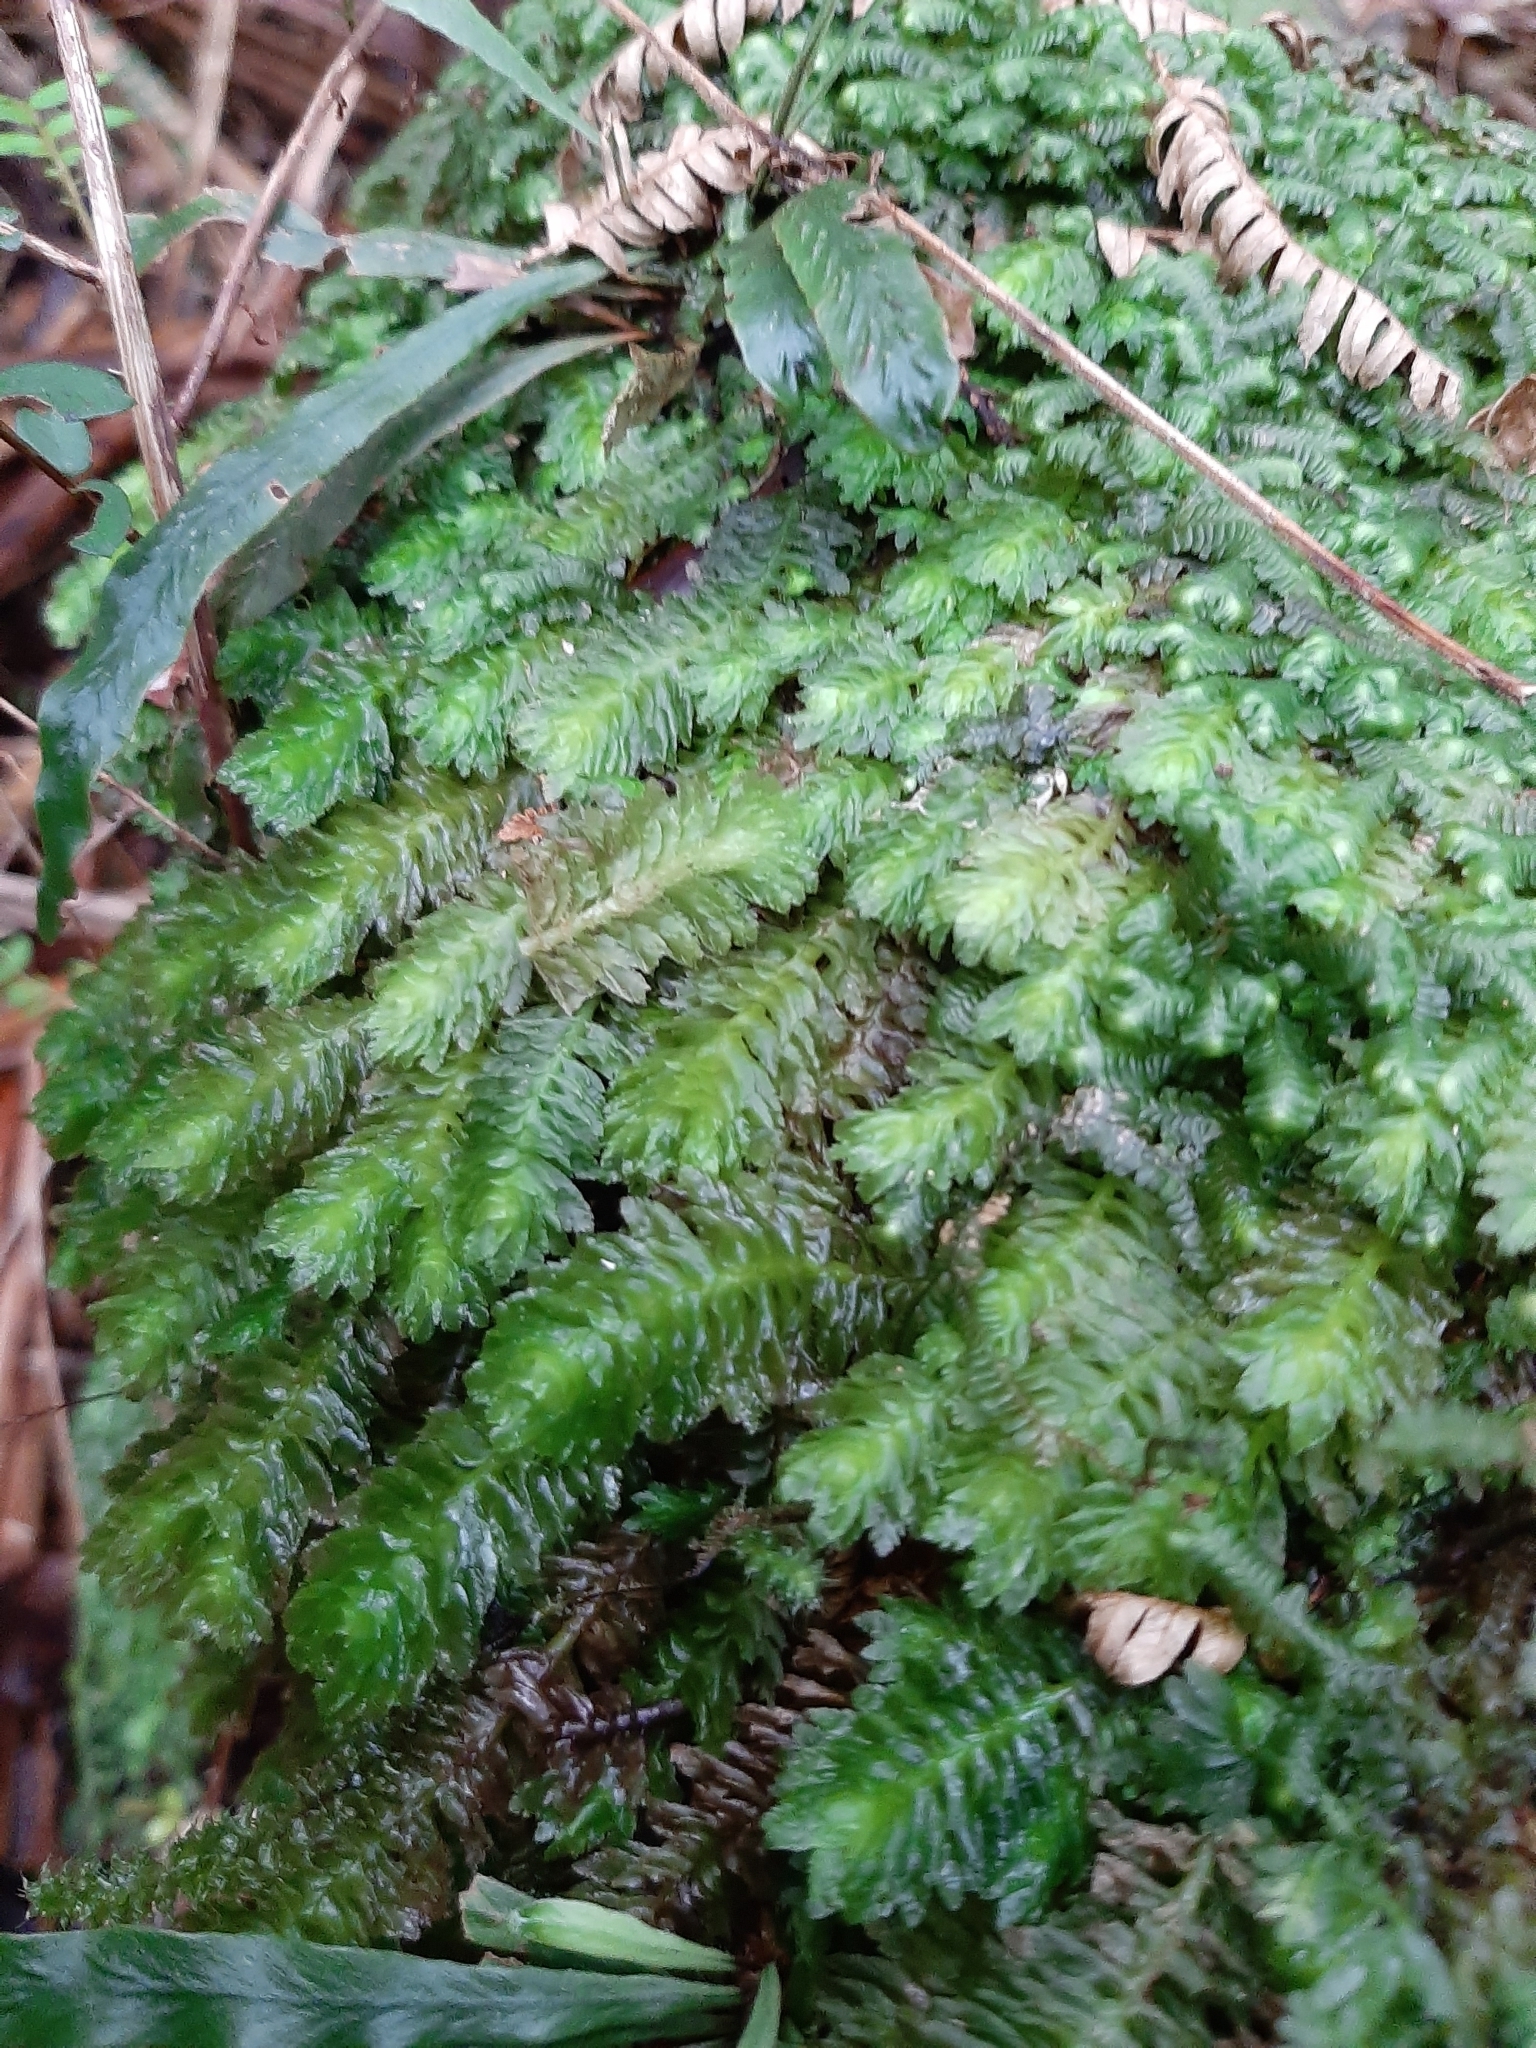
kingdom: Plantae
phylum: Marchantiophyta
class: Jungermanniopsida
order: Jungermanniales
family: Schistochilaceae
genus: Schistochila
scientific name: Schistochila nobilis
